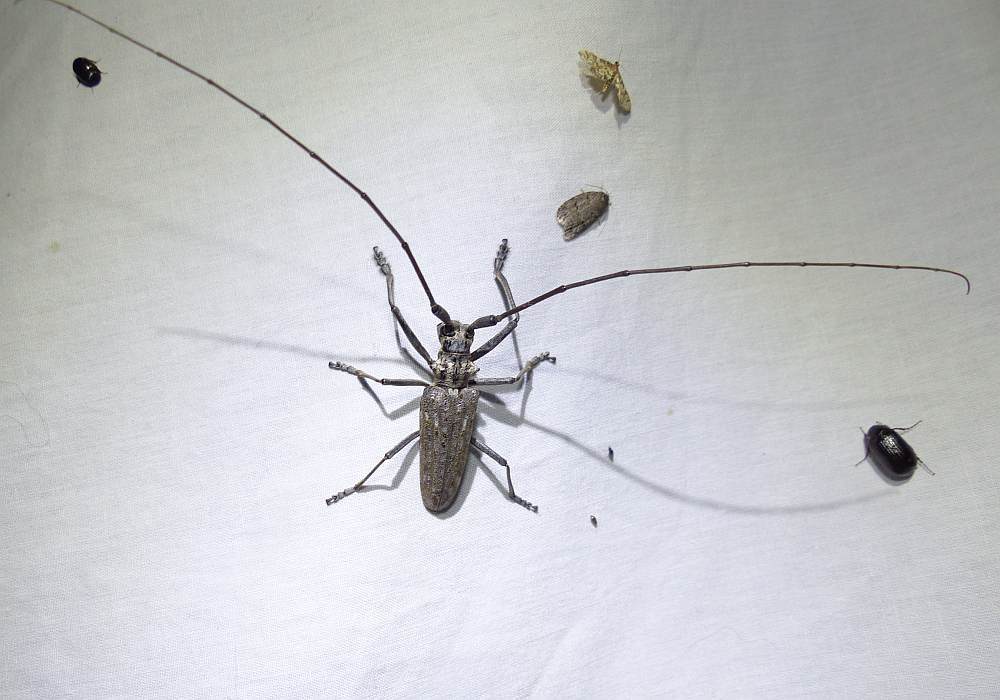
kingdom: Animalia
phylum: Arthropoda
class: Insecta
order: Coleoptera
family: Cerambycidae
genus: Monochamus
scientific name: Monochamus notatus
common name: Northeastern pine sawyer beetle
